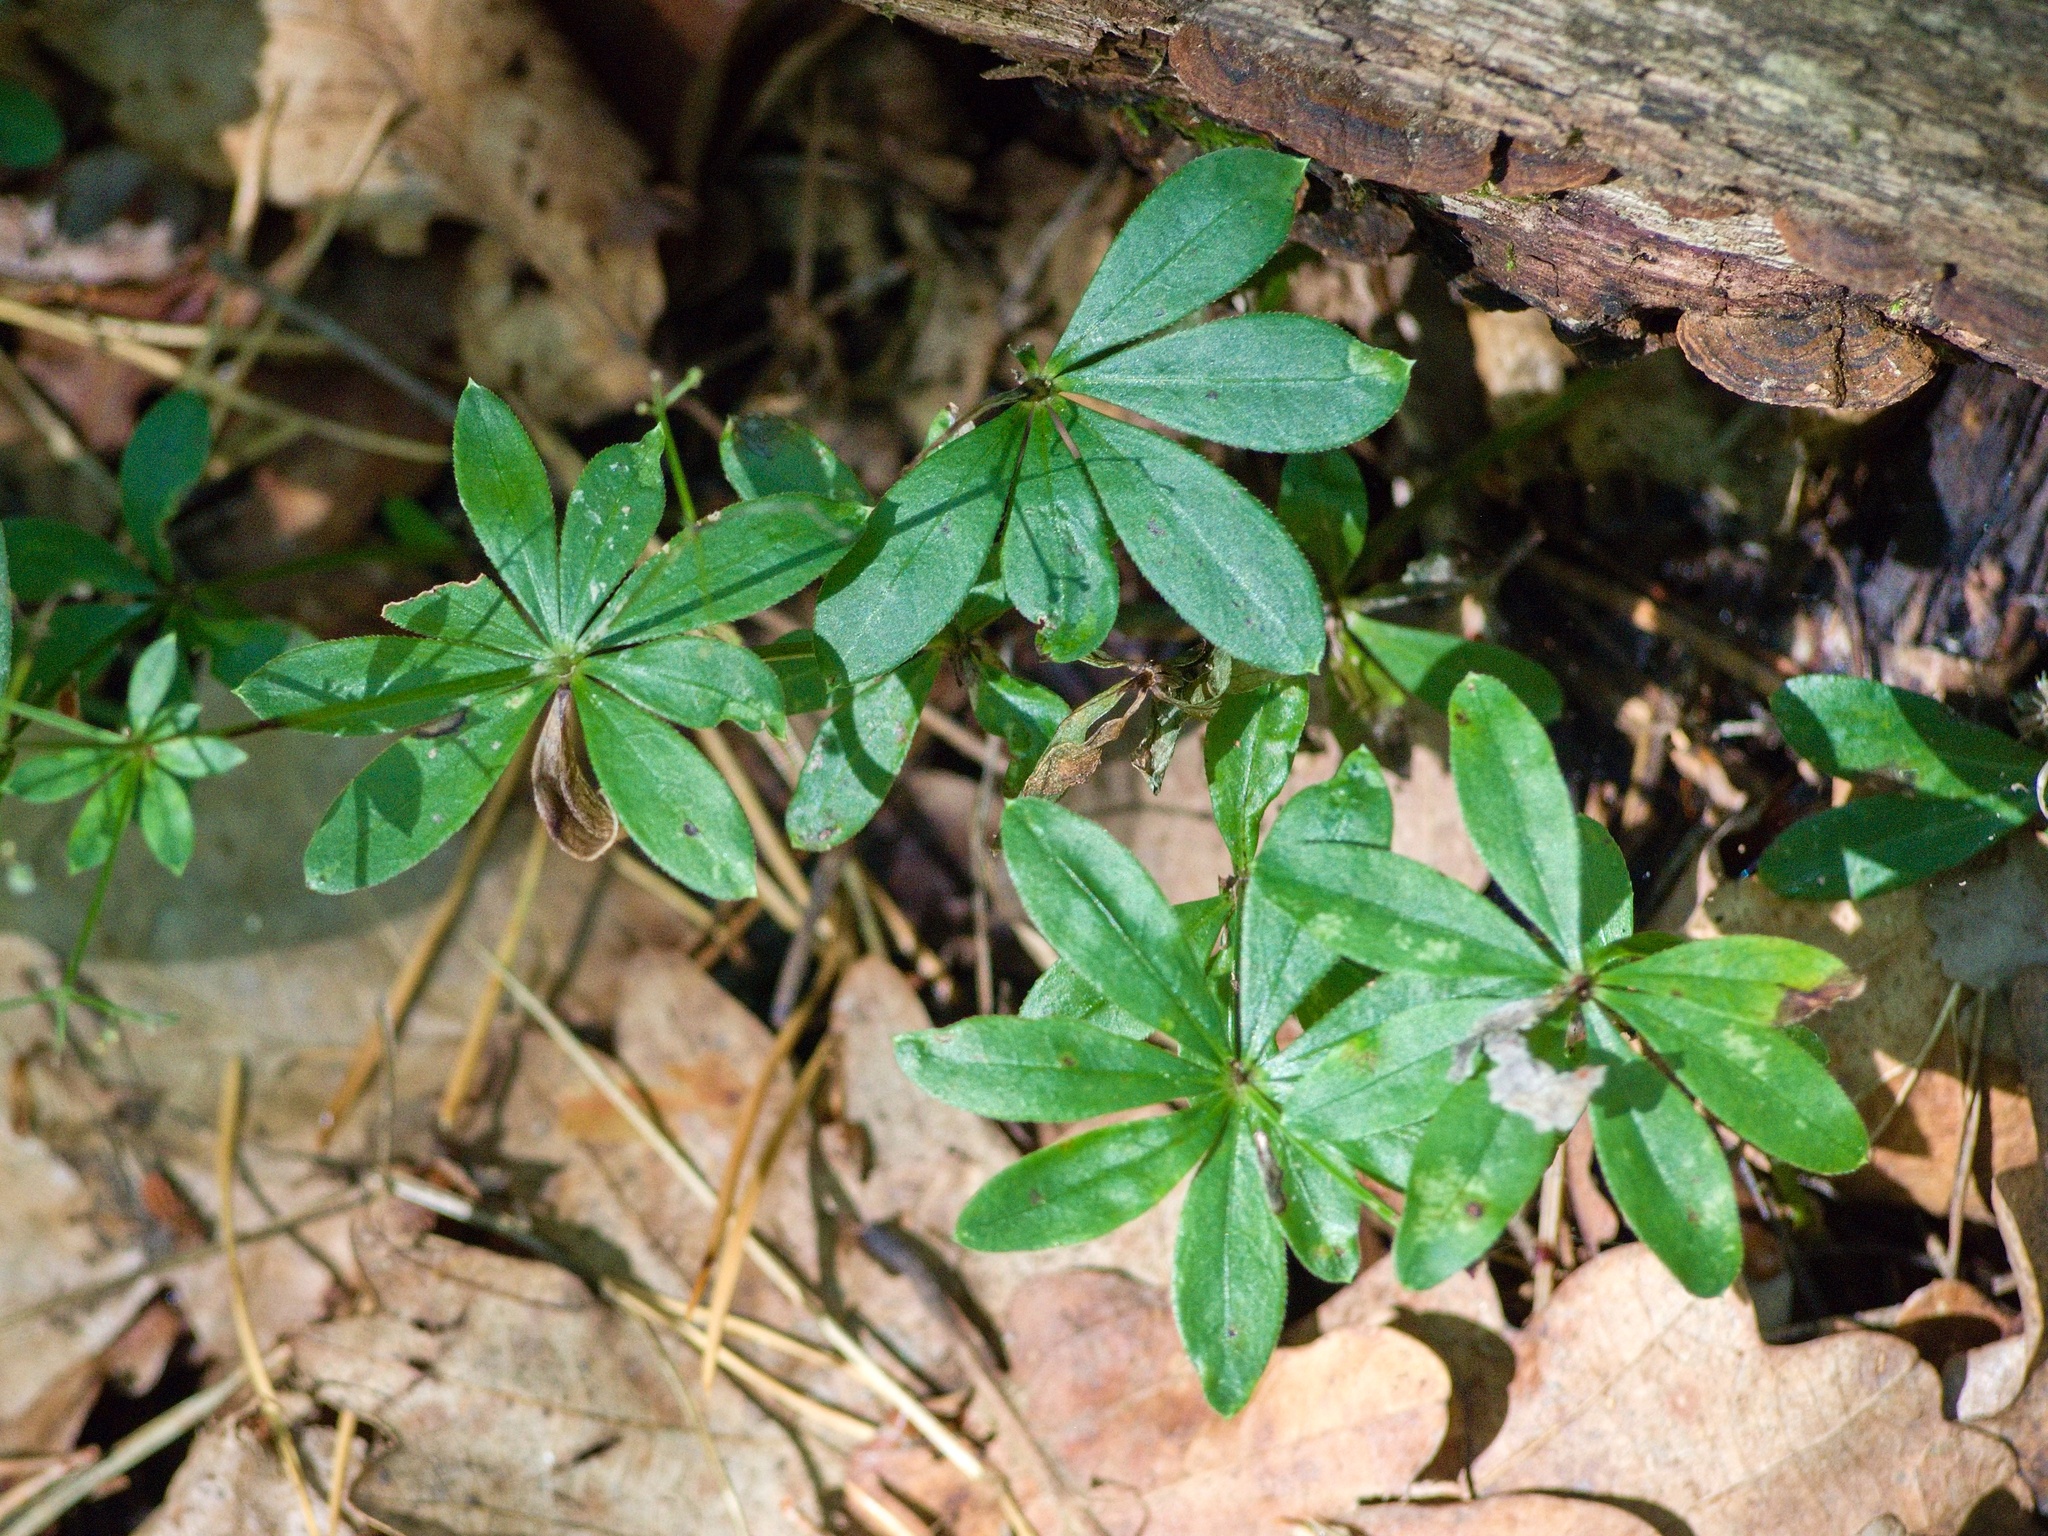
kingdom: Plantae
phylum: Tracheophyta
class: Magnoliopsida
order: Gentianales
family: Rubiaceae
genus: Galium
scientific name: Galium odoratum
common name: Sweet woodruff
